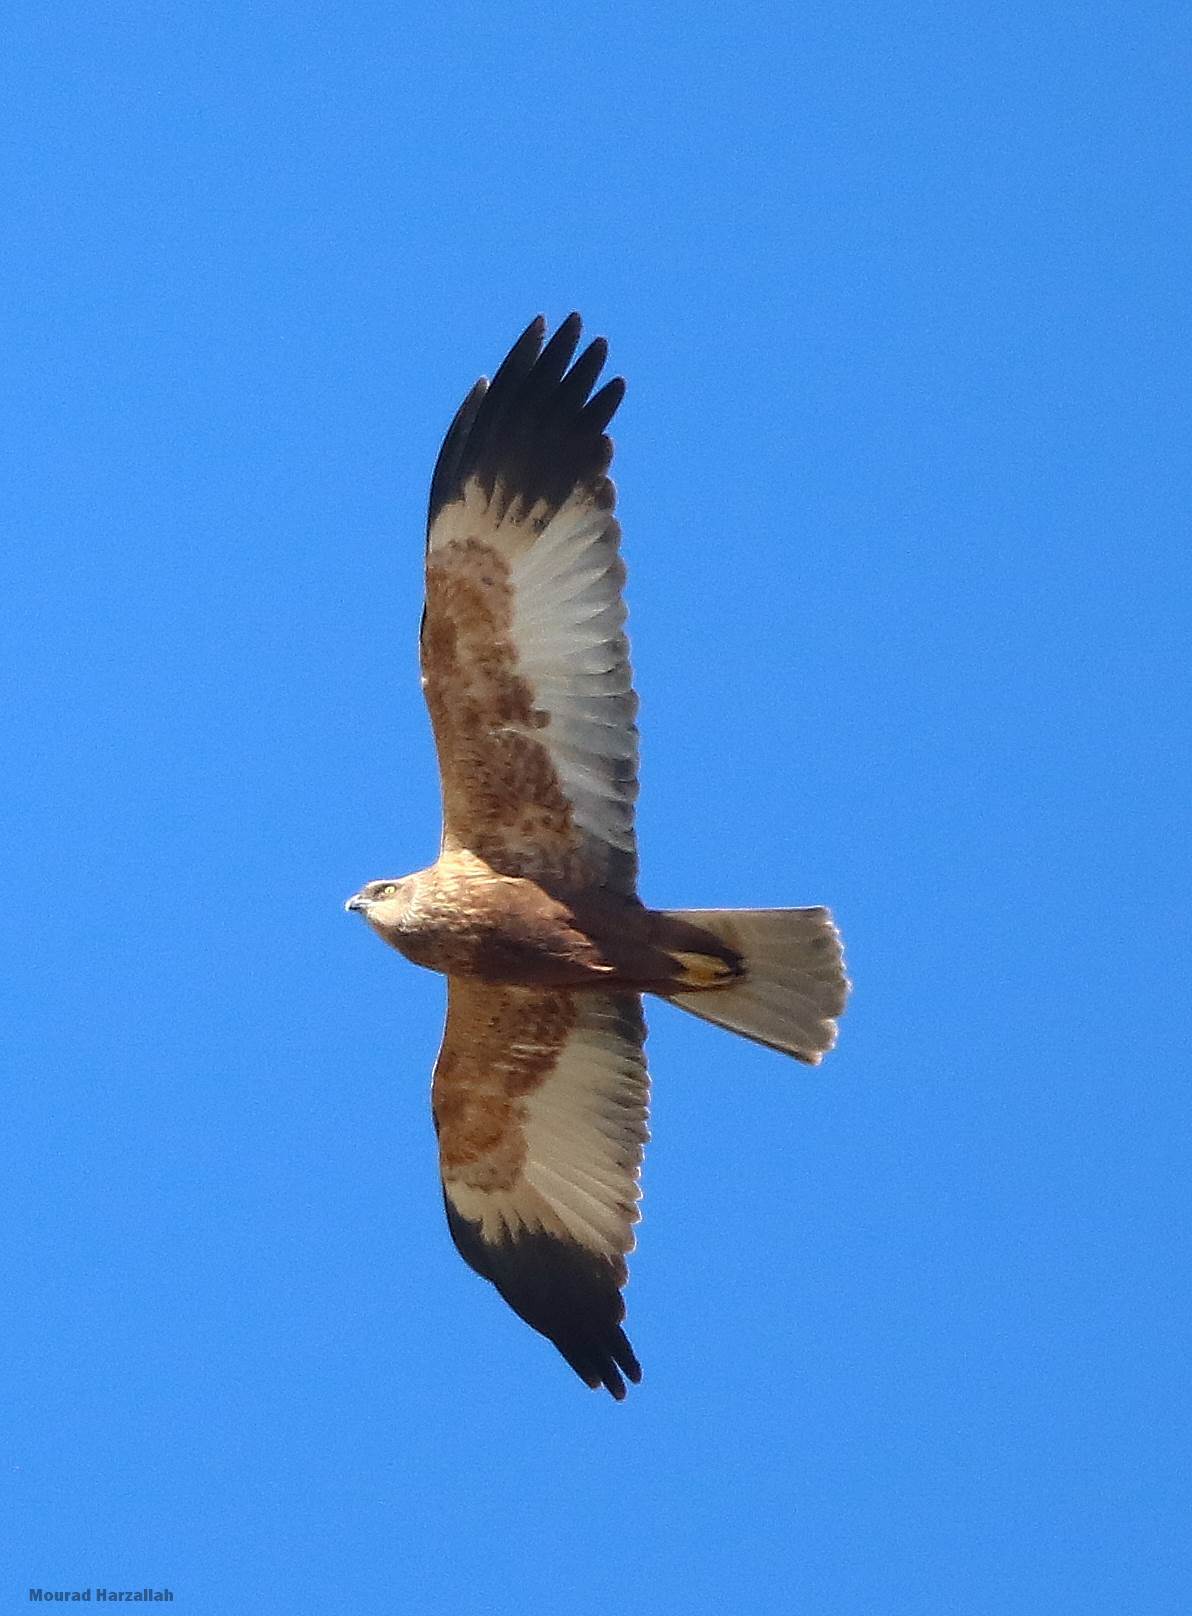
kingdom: Animalia
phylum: Chordata
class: Aves
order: Accipitriformes
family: Accipitridae
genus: Circus
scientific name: Circus aeruginosus
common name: Western marsh harrier
